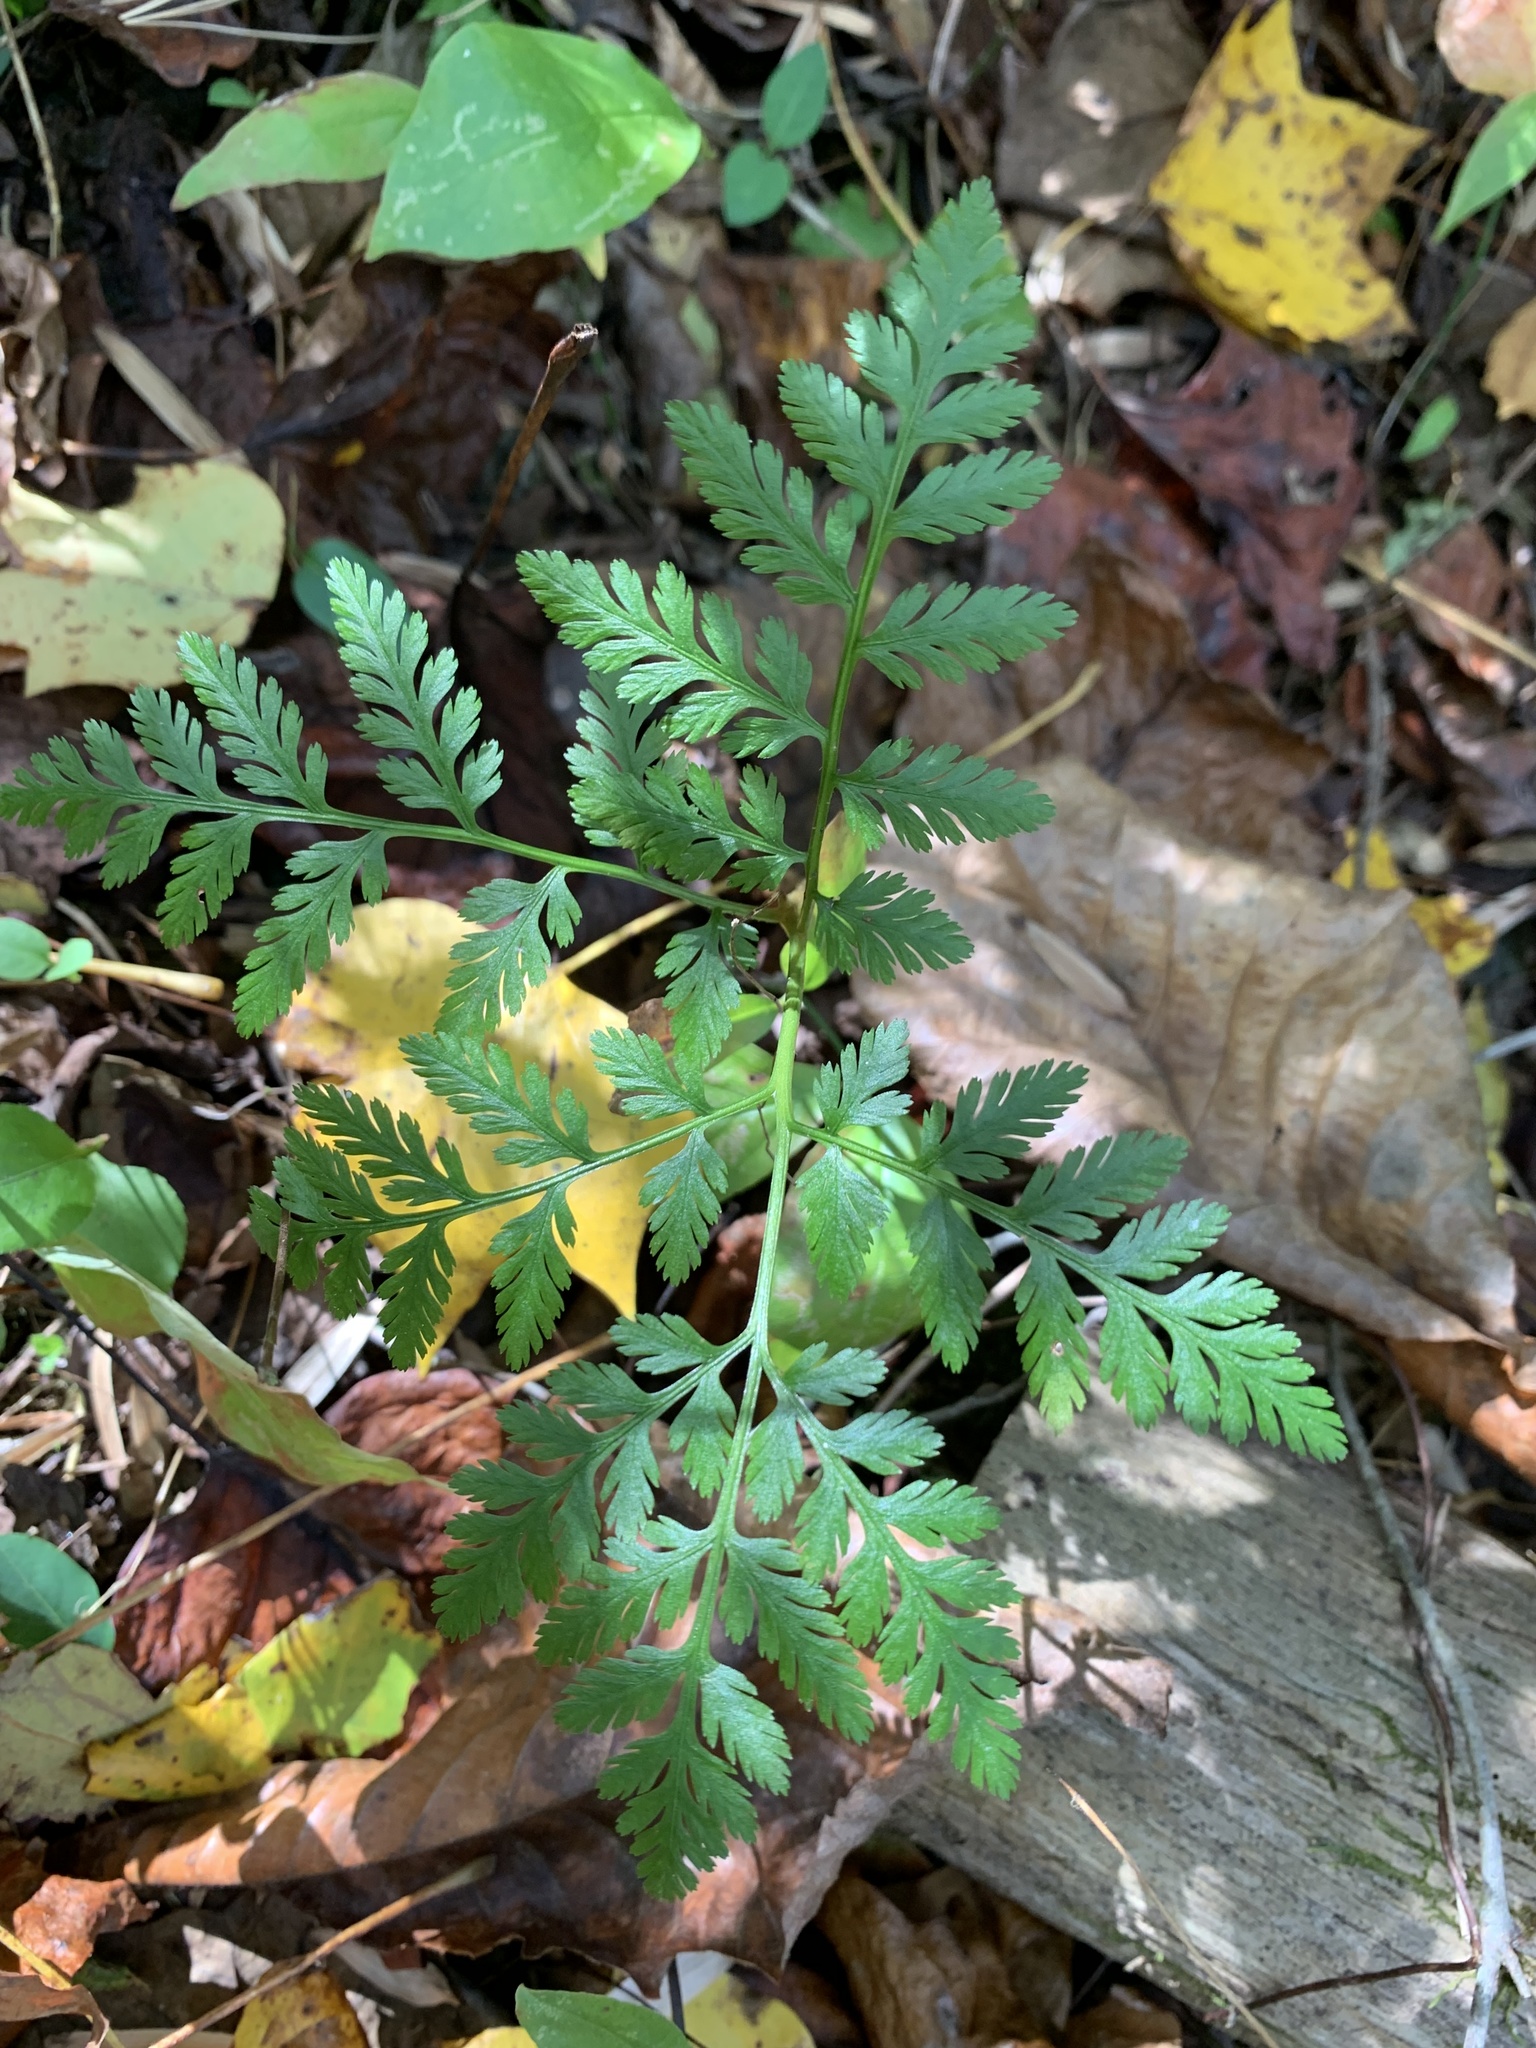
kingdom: Plantae
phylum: Tracheophyta
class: Polypodiopsida
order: Ophioglossales
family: Ophioglossaceae
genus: Botrypus
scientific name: Botrypus virginianus
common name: Common grapefern
